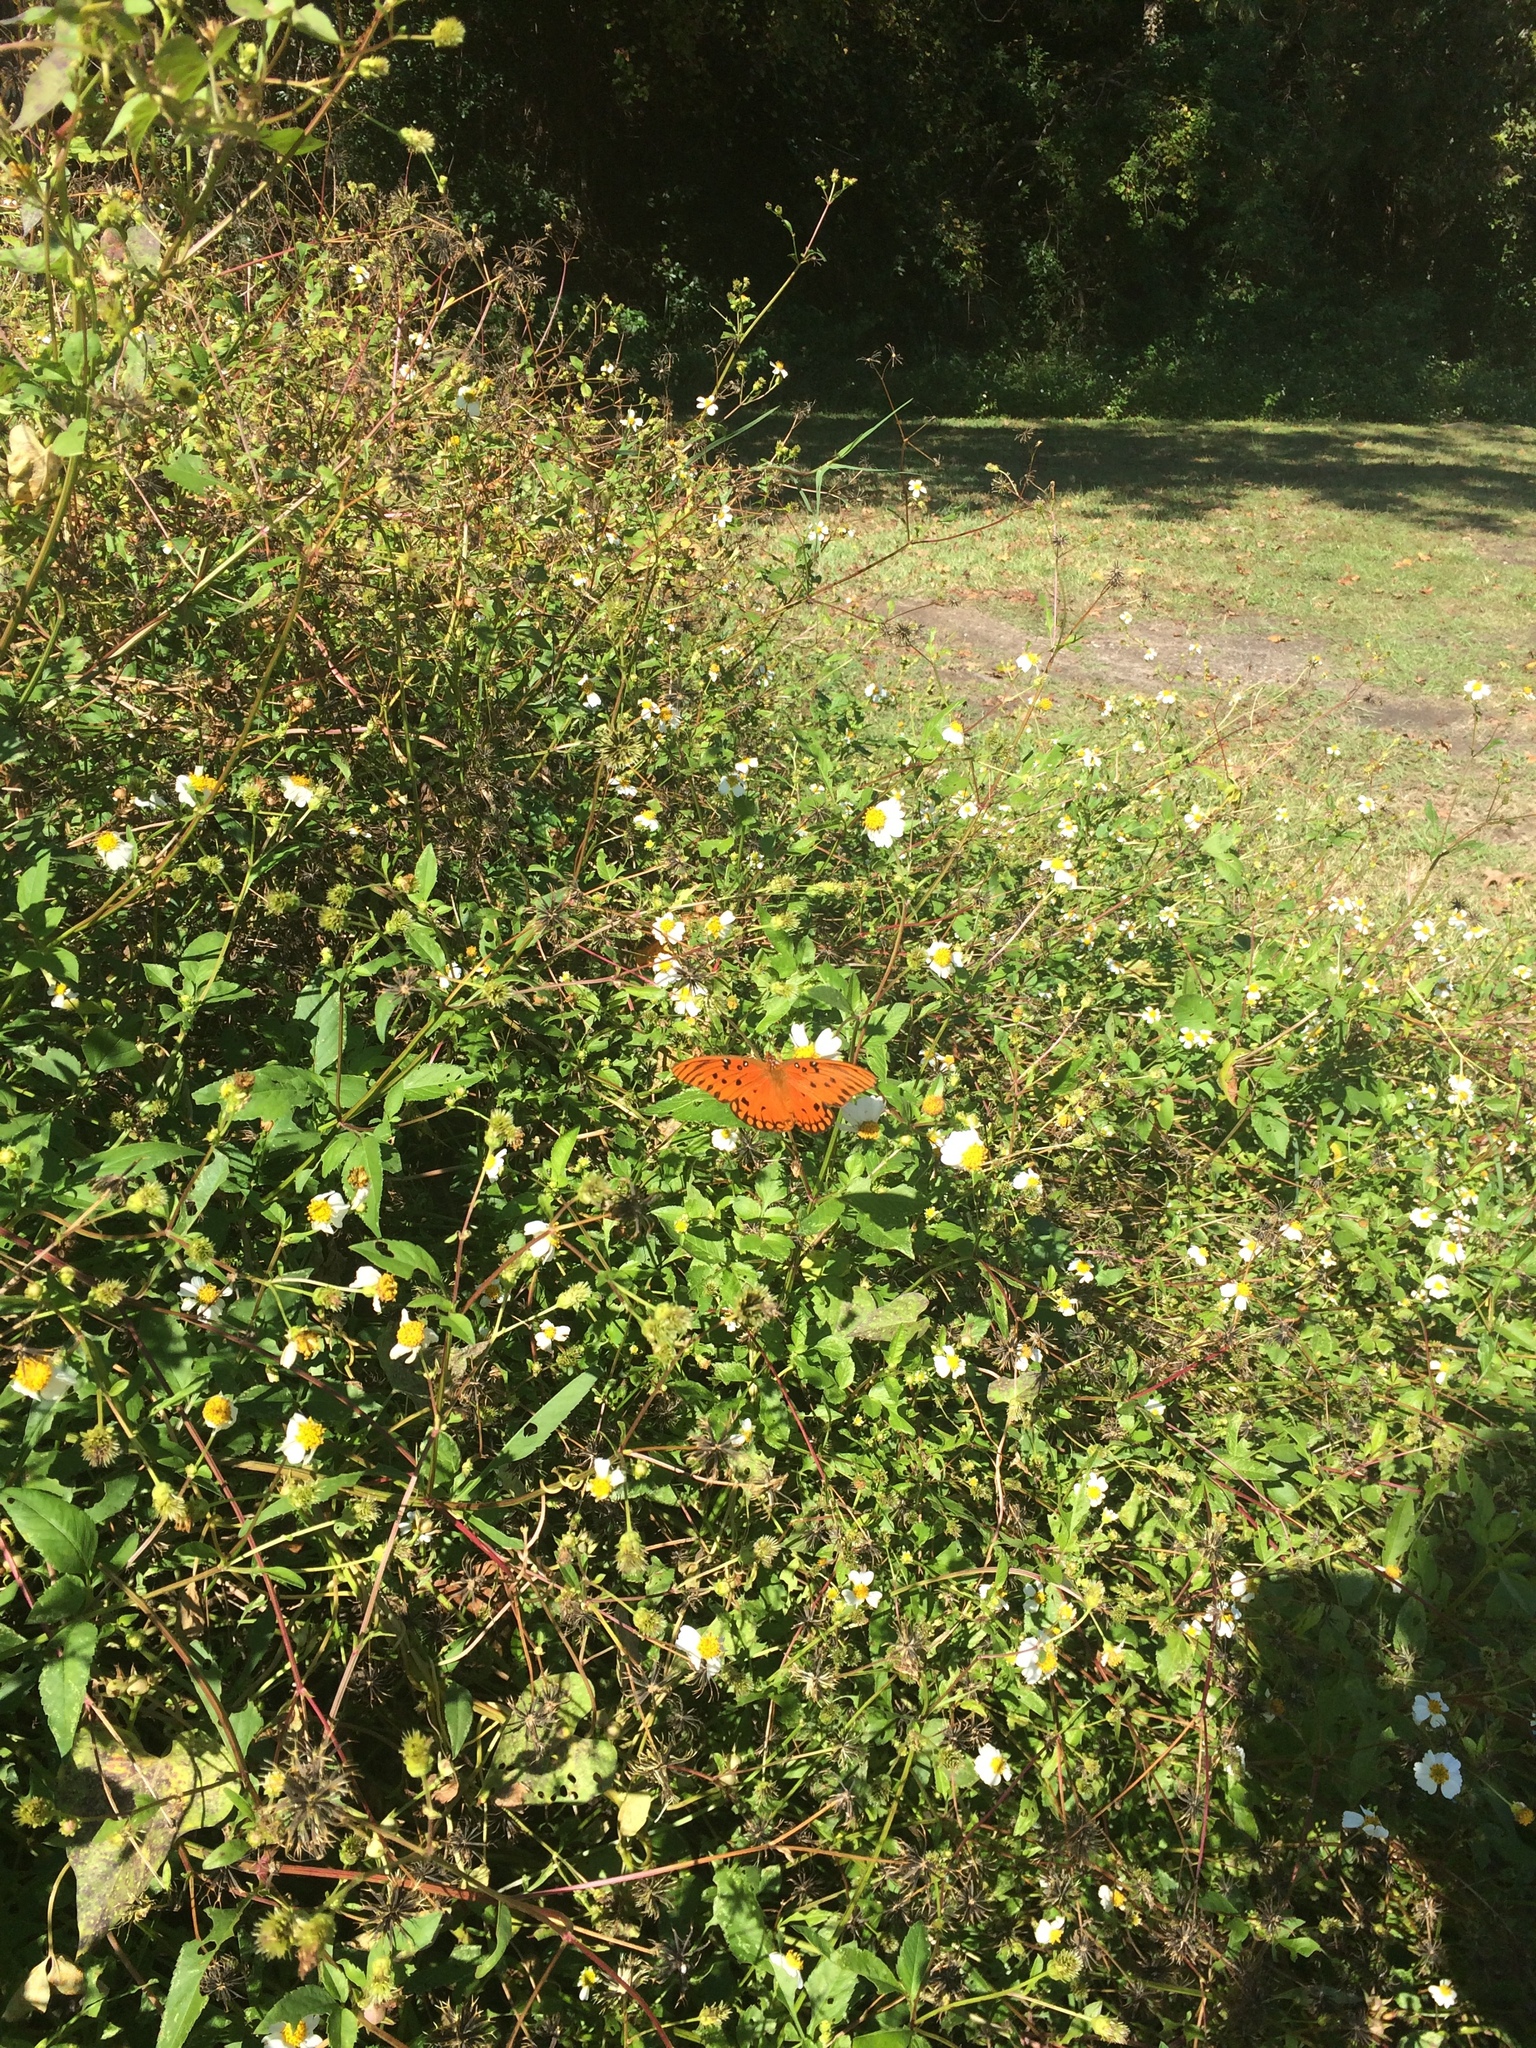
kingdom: Animalia
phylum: Arthropoda
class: Insecta
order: Lepidoptera
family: Nymphalidae
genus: Dione
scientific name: Dione vanillae
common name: Gulf fritillary
